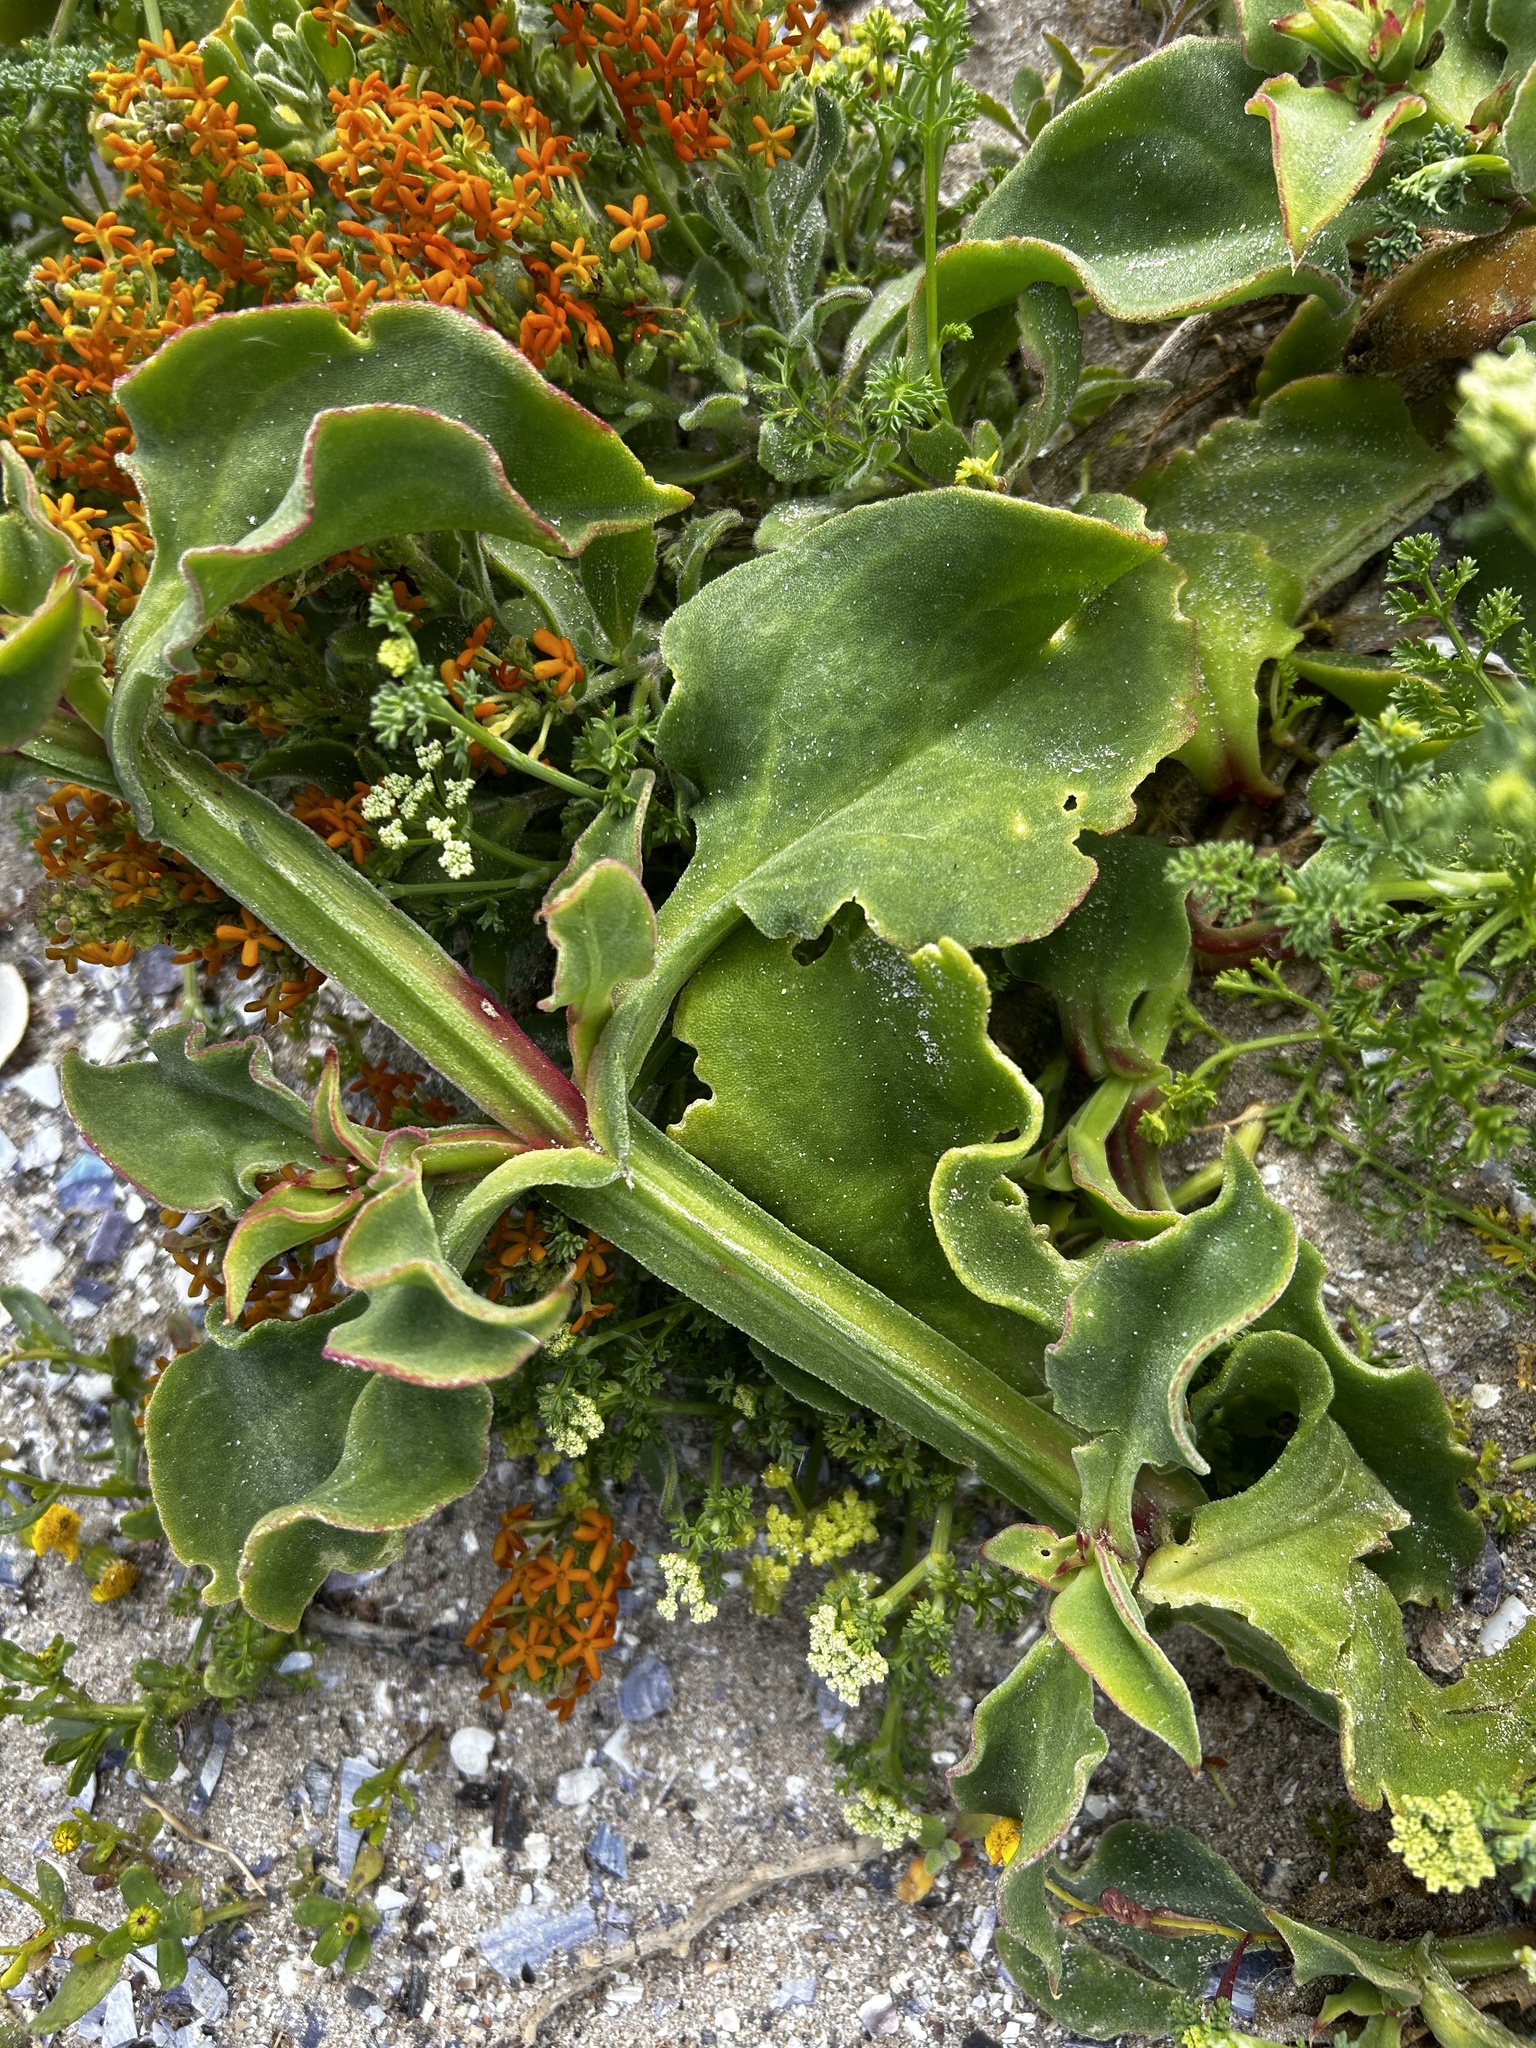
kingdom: Plantae
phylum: Tracheophyta
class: Magnoliopsida
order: Caryophyllales
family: Aizoaceae
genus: Mesembryanthemum
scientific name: Mesembryanthemum guerichianum
